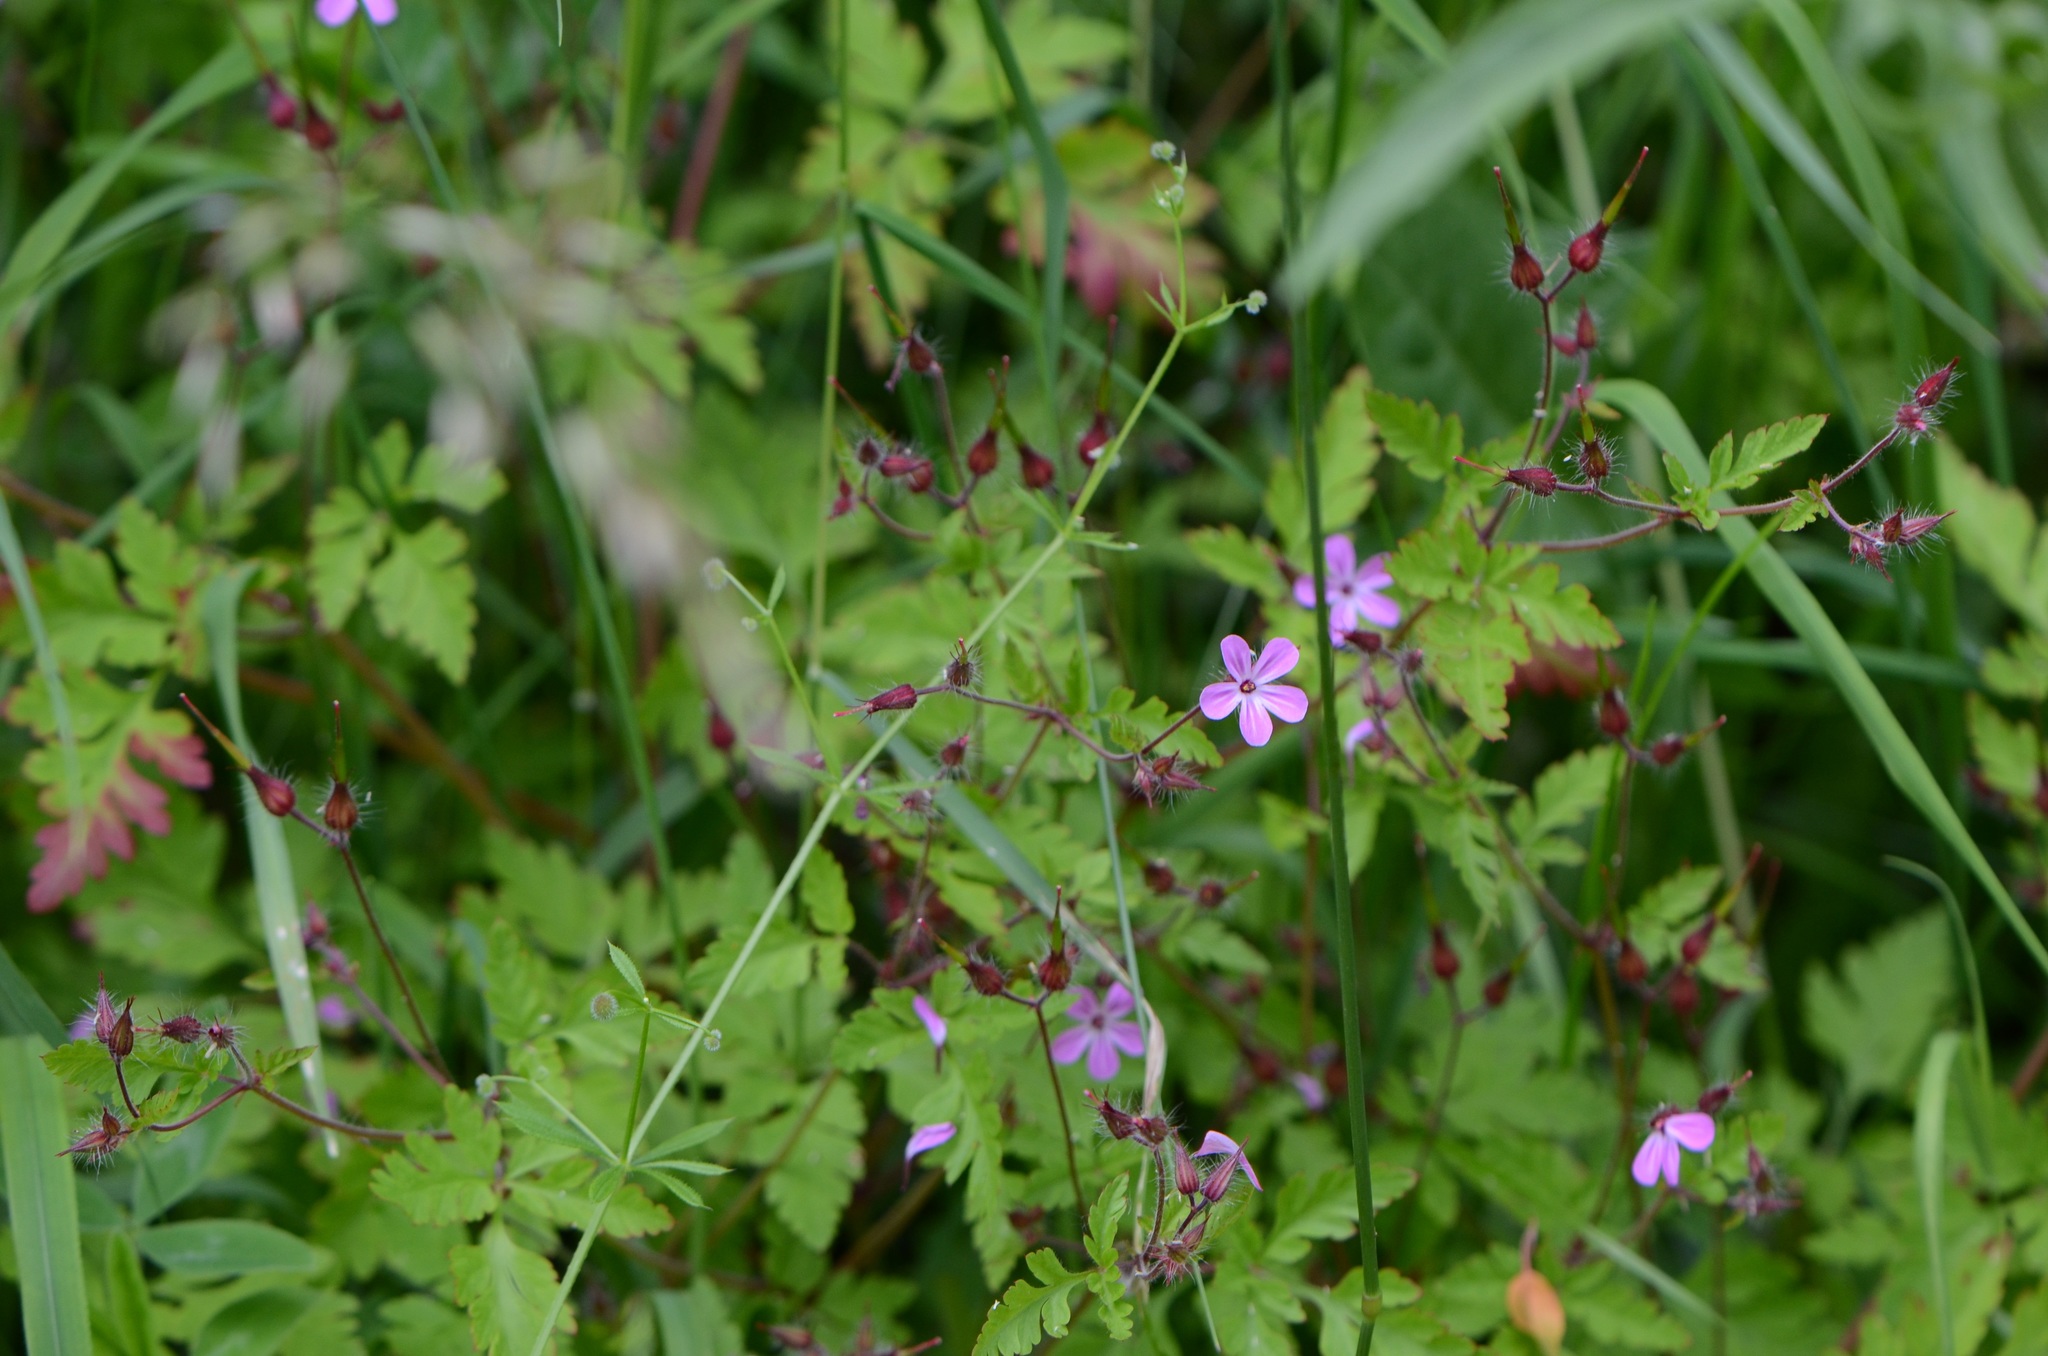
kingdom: Plantae
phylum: Tracheophyta
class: Magnoliopsida
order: Geraniales
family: Geraniaceae
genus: Geranium
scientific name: Geranium robertianum
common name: Herb-robert
